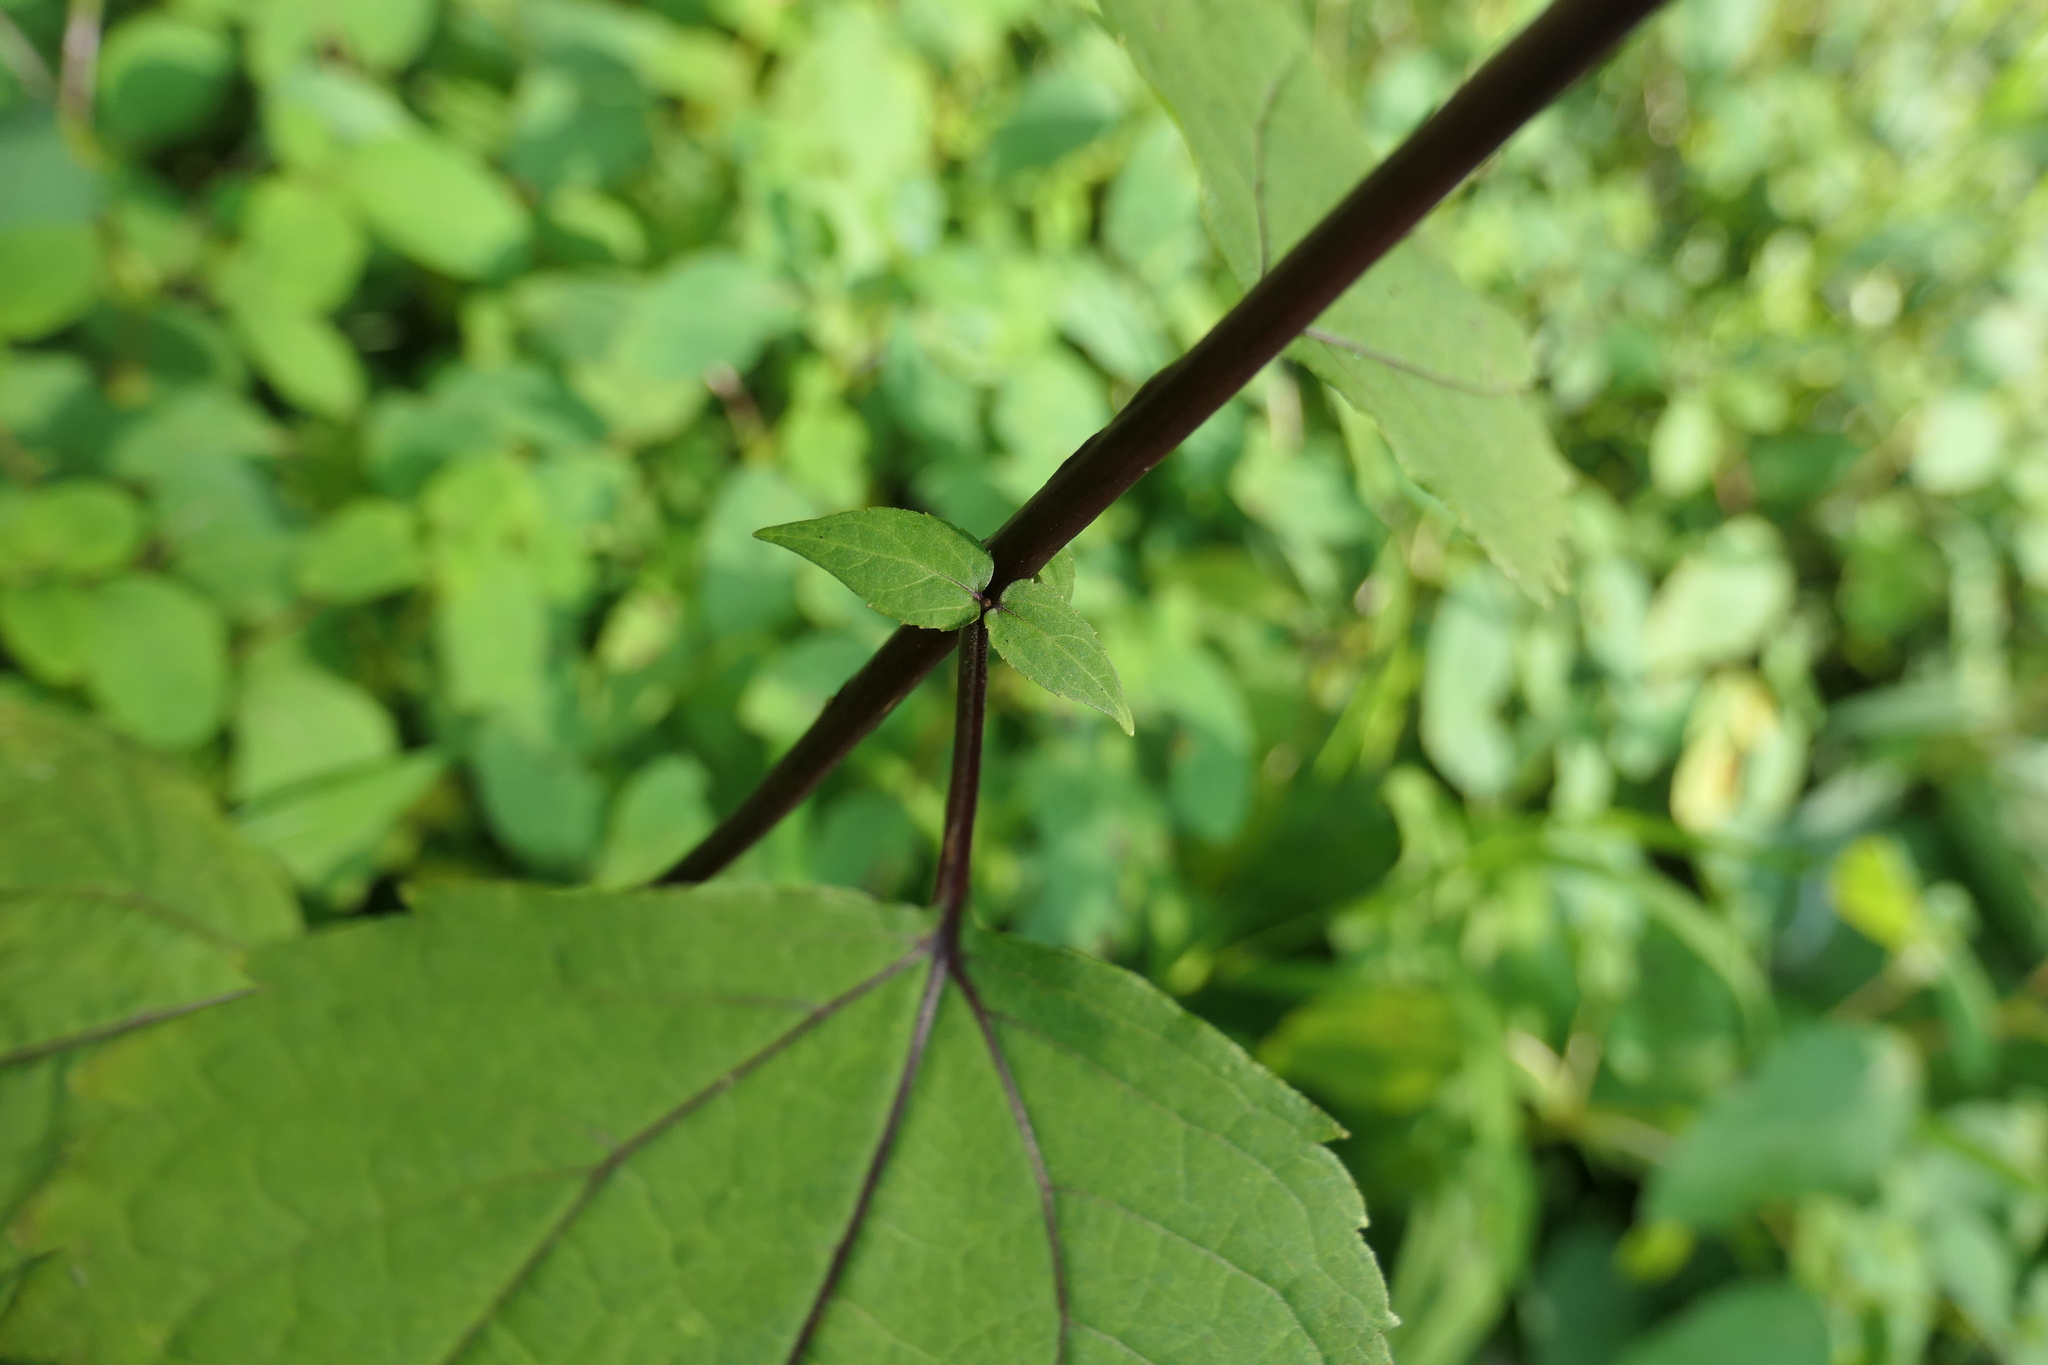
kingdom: Plantae
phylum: Tracheophyta
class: Magnoliopsida
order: Asterales
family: Asteraceae
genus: Ageratina
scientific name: Ageratina altissima
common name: White snakeroot
